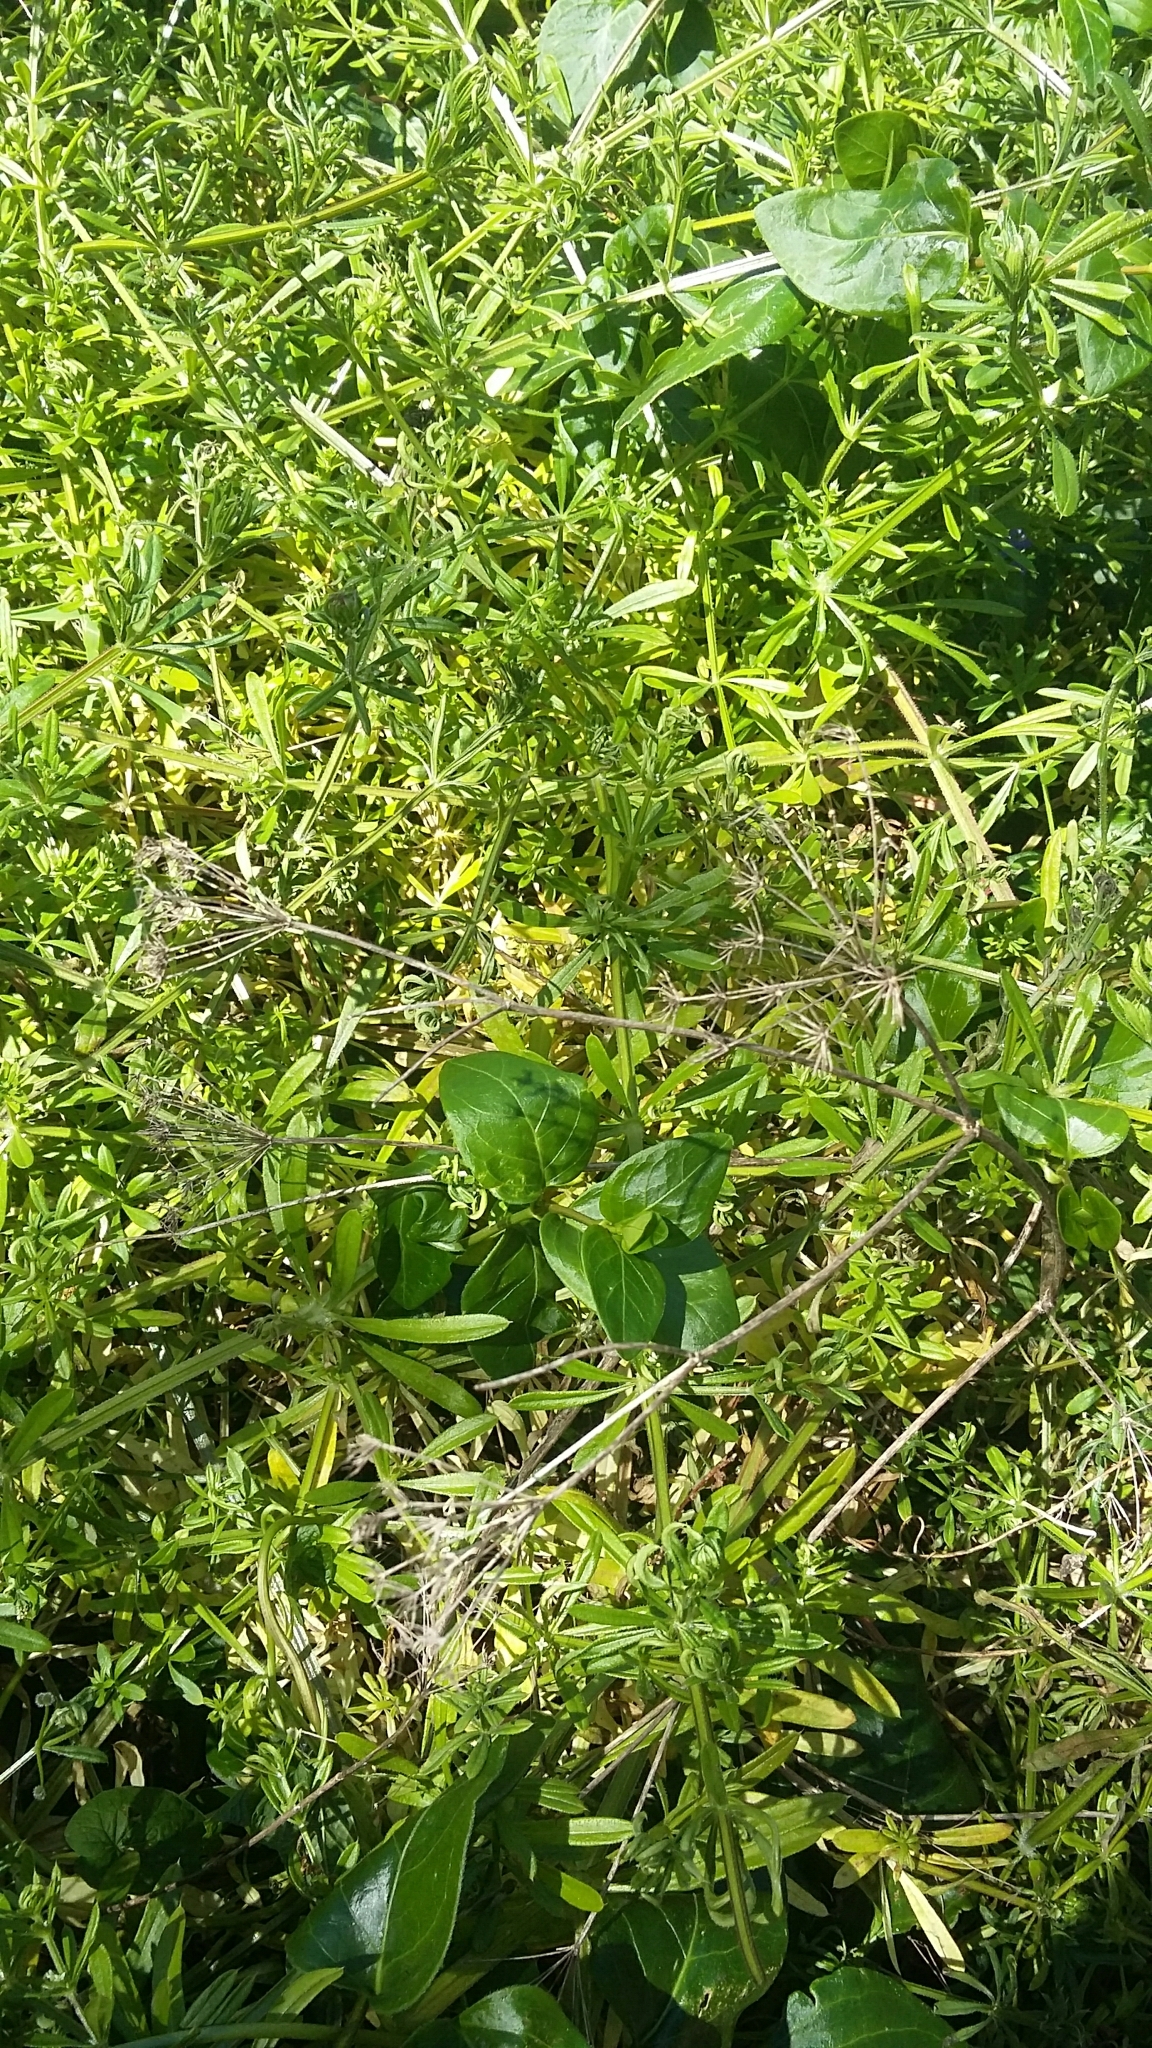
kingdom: Plantae
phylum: Tracheophyta
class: Magnoliopsida
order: Gentianales
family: Rubiaceae
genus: Galium
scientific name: Galium aparine
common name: Cleavers
